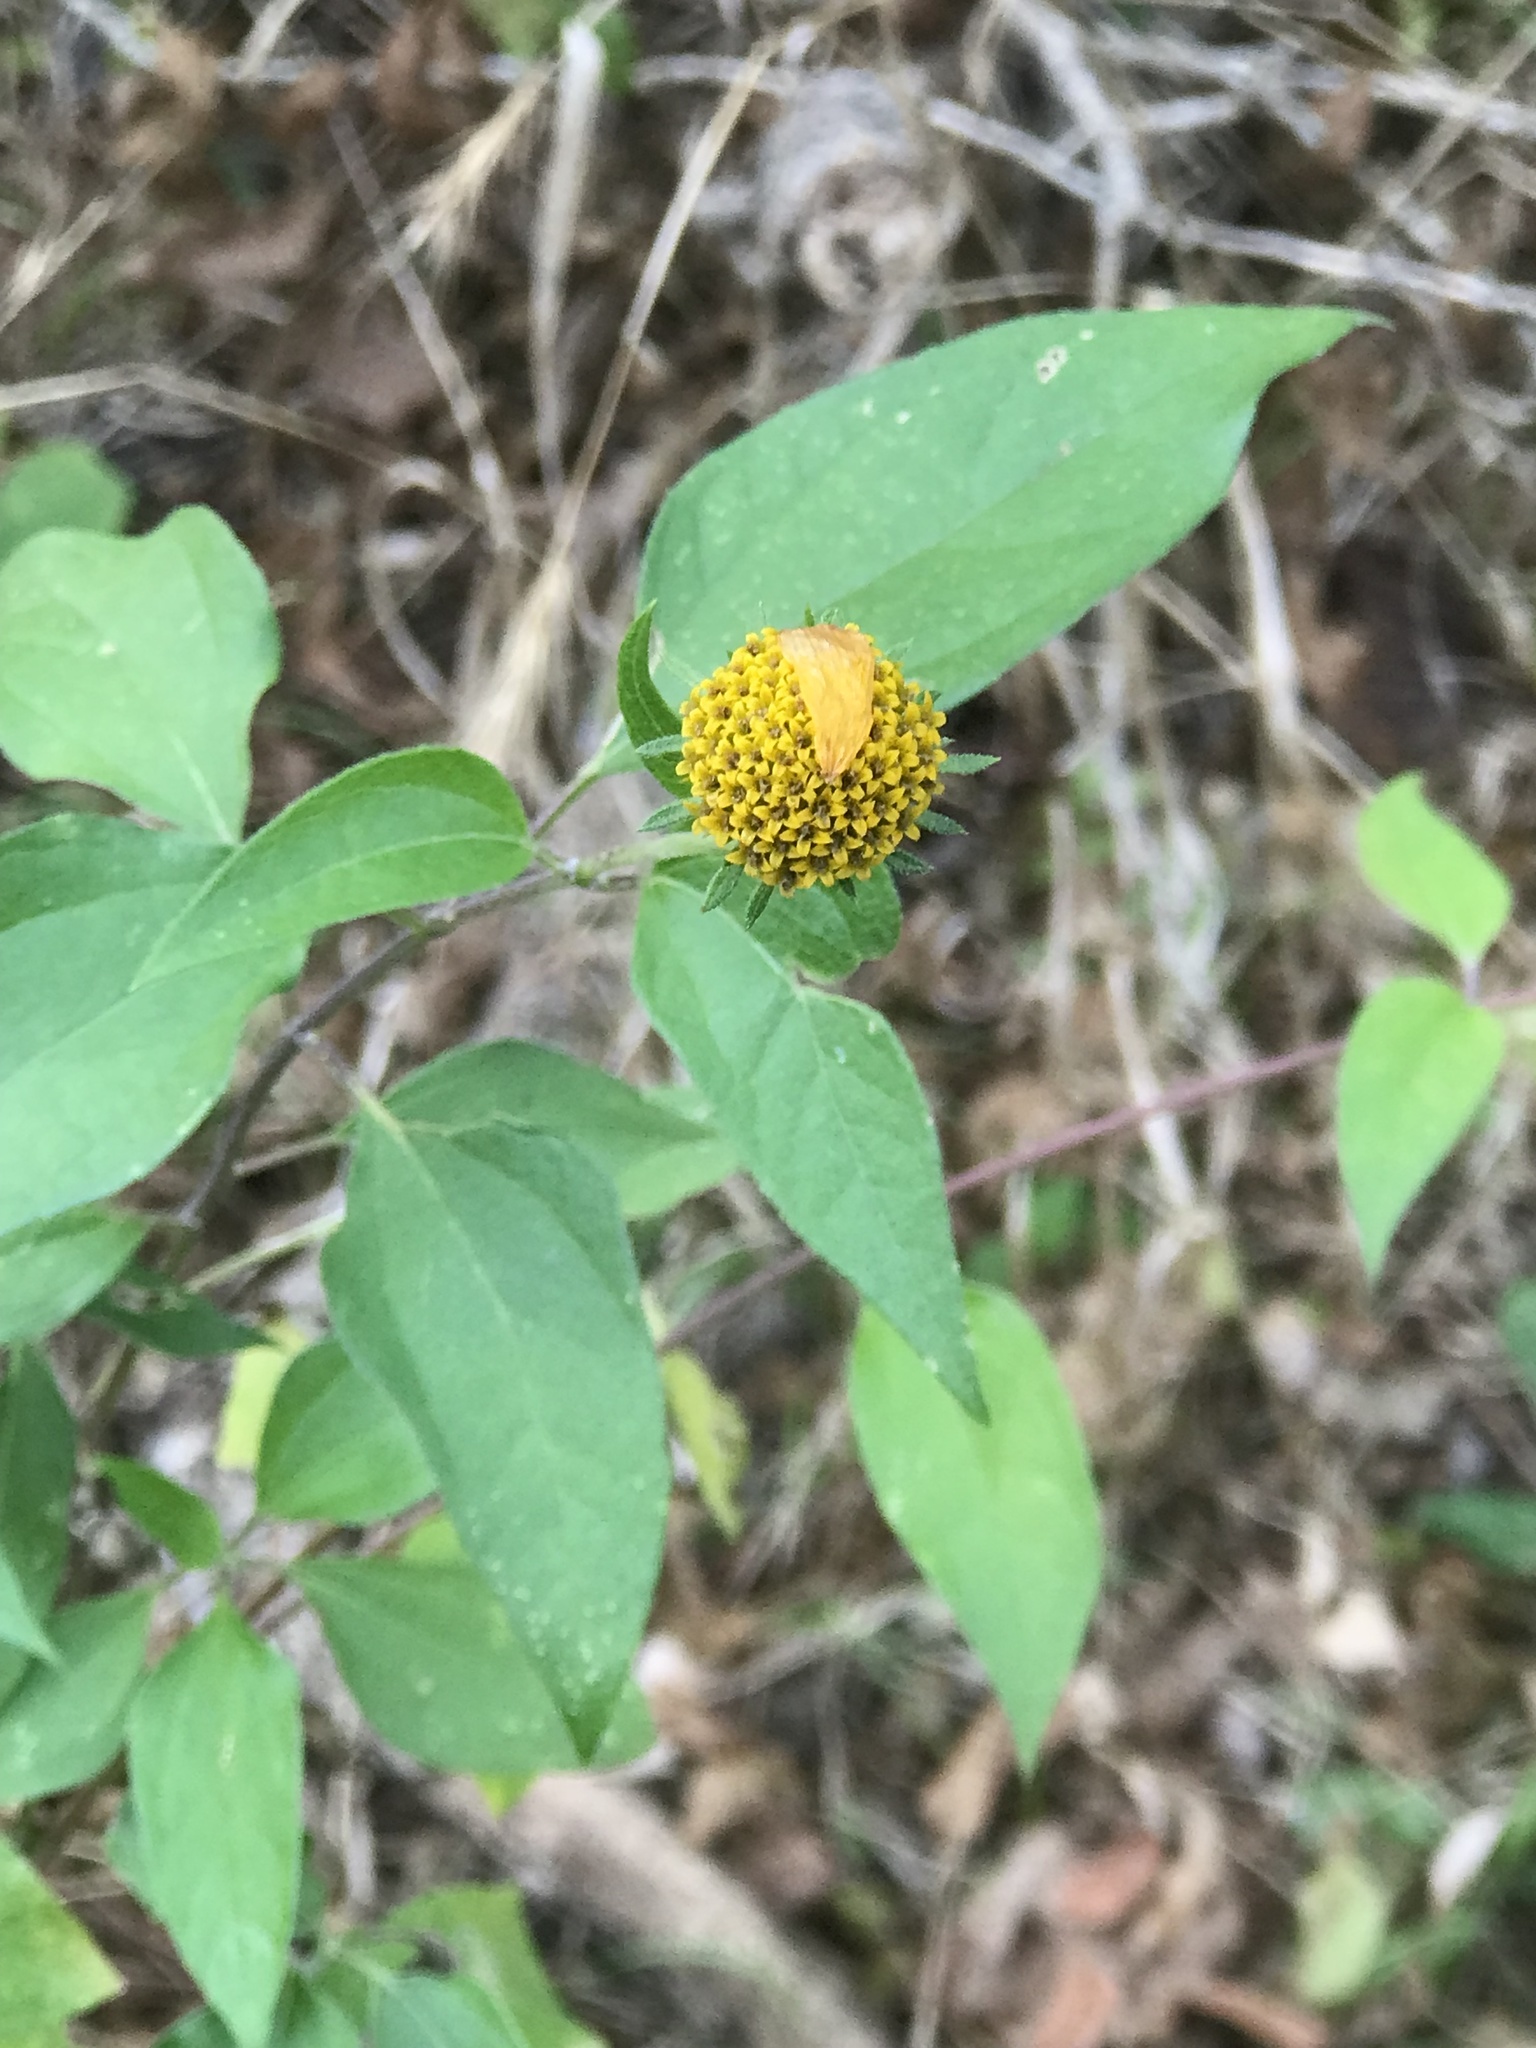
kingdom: Plantae
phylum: Tracheophyta
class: Magnoliopsida
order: Asterales
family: Asteraceae
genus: Viguiera
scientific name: Viguiera dentata
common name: Toothleaf
